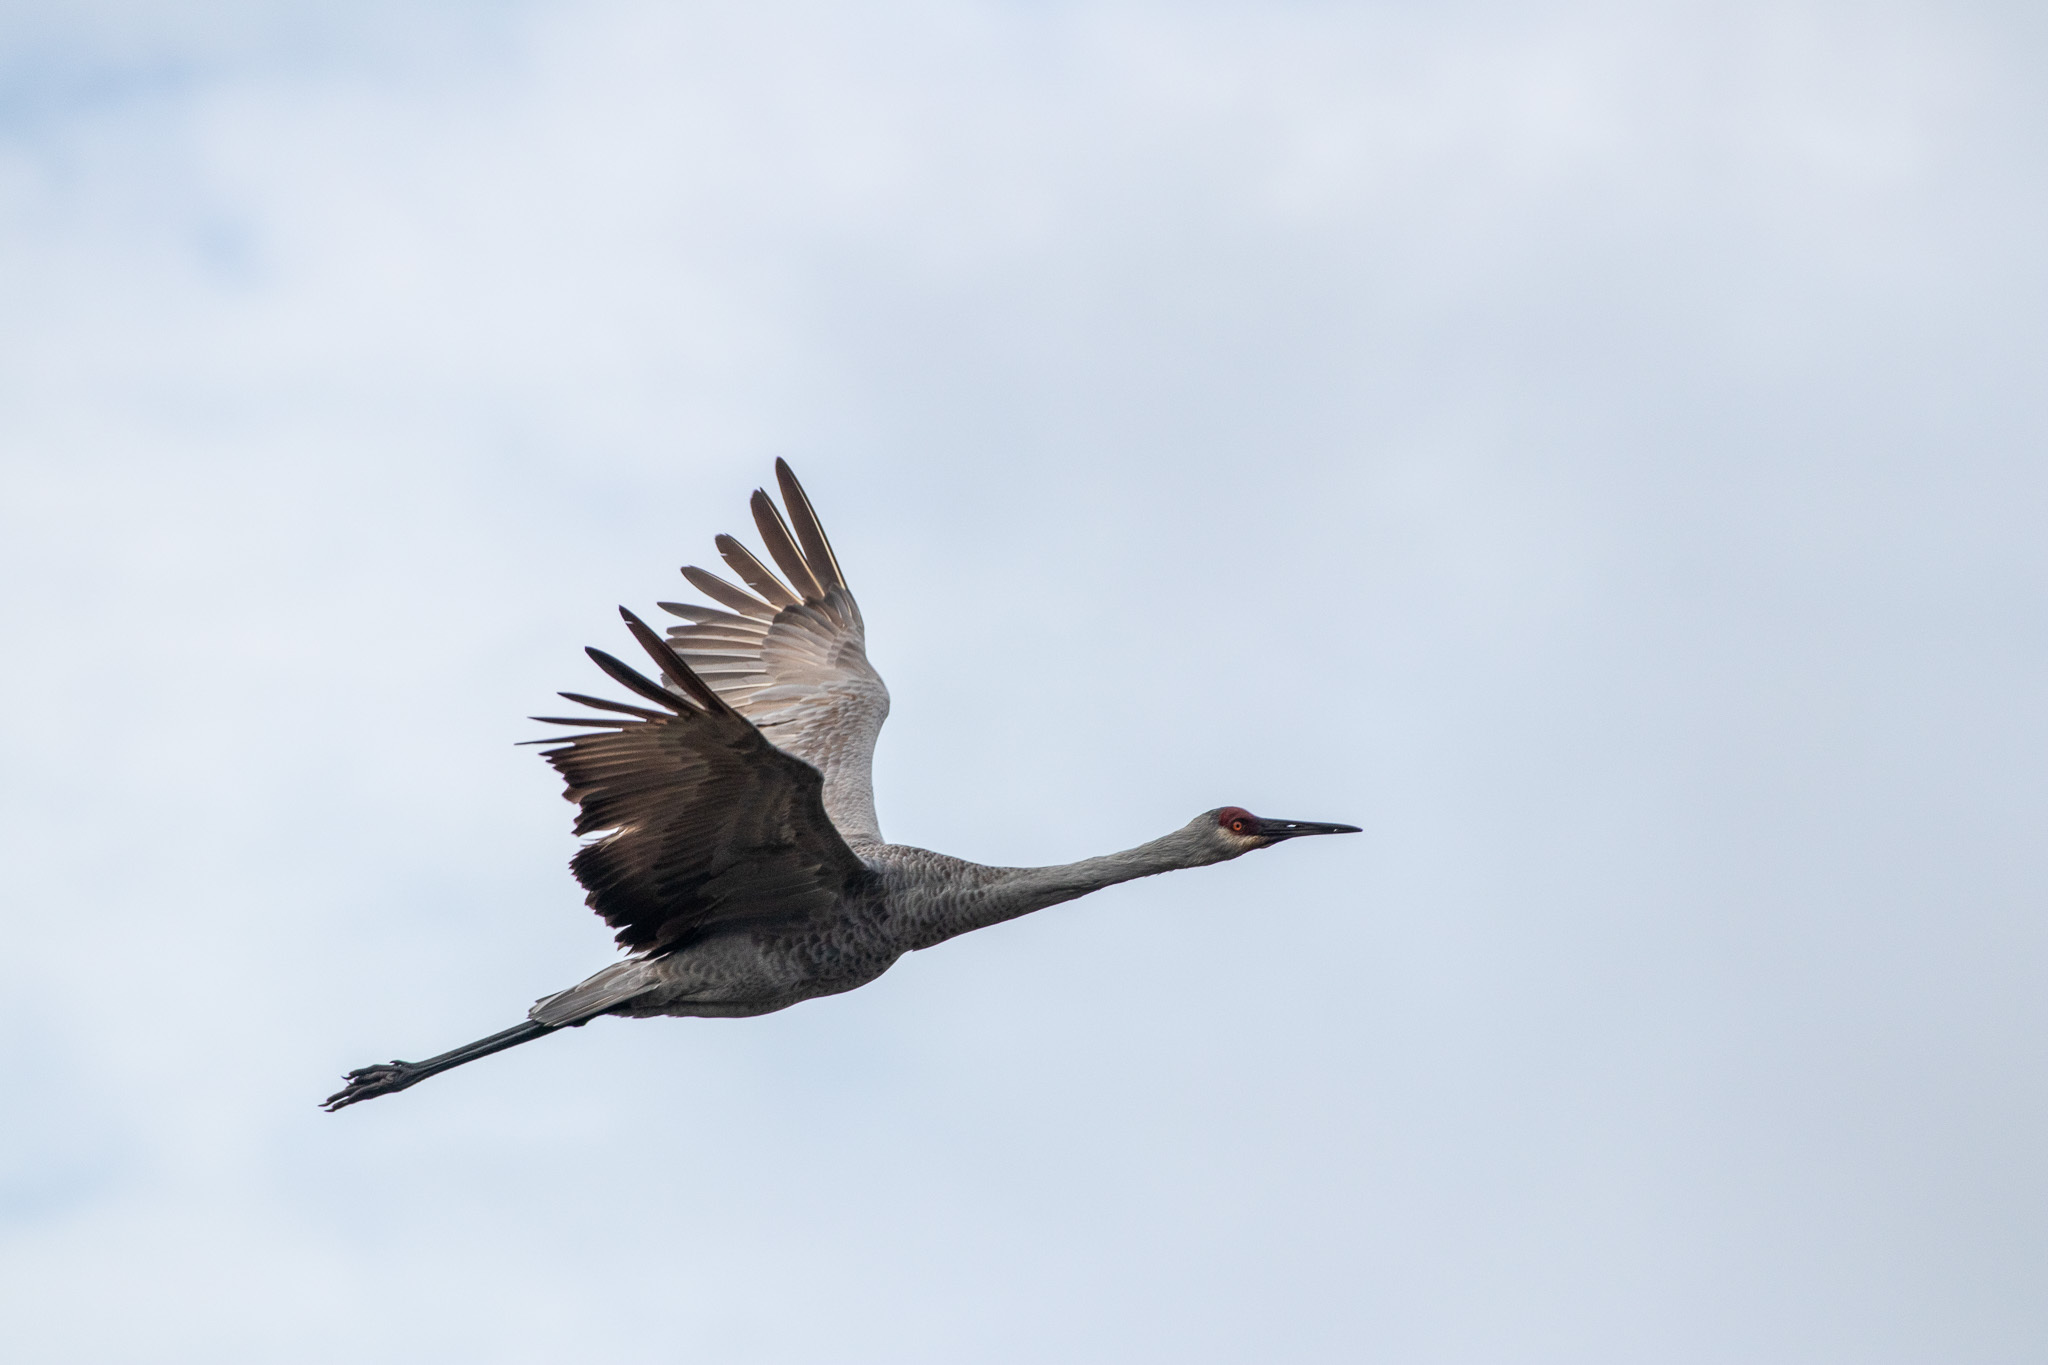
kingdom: Animalia
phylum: Chordata
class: Aves
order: Gruiformes
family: Gruidae
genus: Grus
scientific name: Grus canadensis
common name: Sandhill crane
